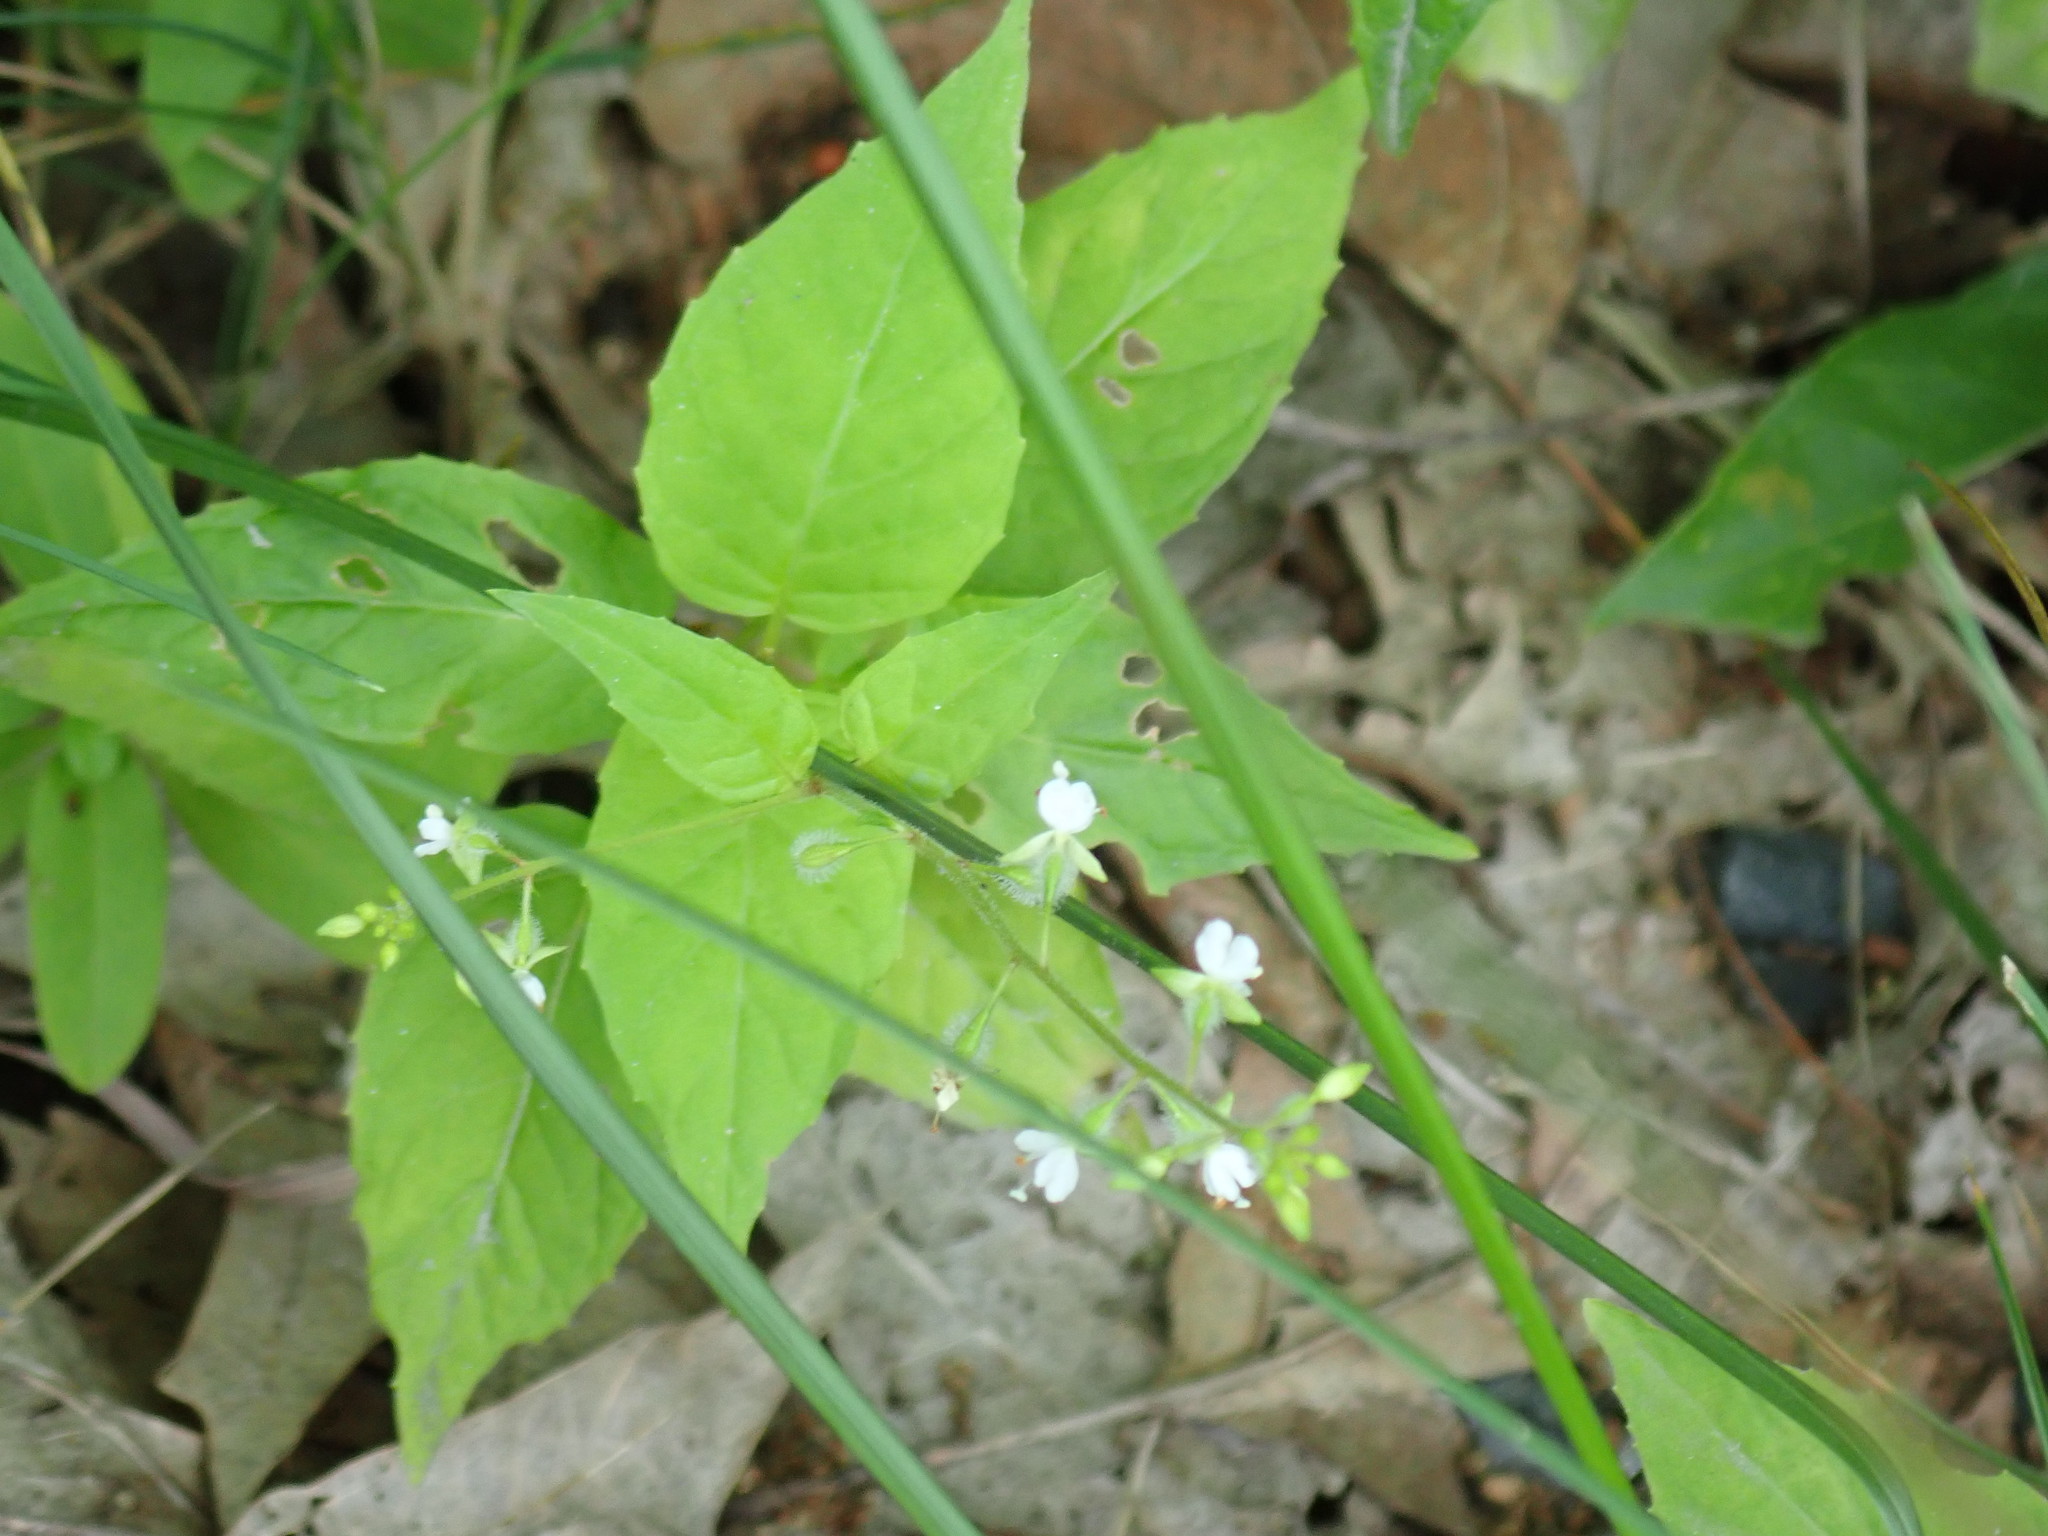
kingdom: Plantae
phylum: Tracheophyta
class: Magnoliopsida
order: Myrtales
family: Onagraceae
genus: Circaea
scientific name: Circaea canadensis
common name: Broad-leaved enchanter's nightshade
